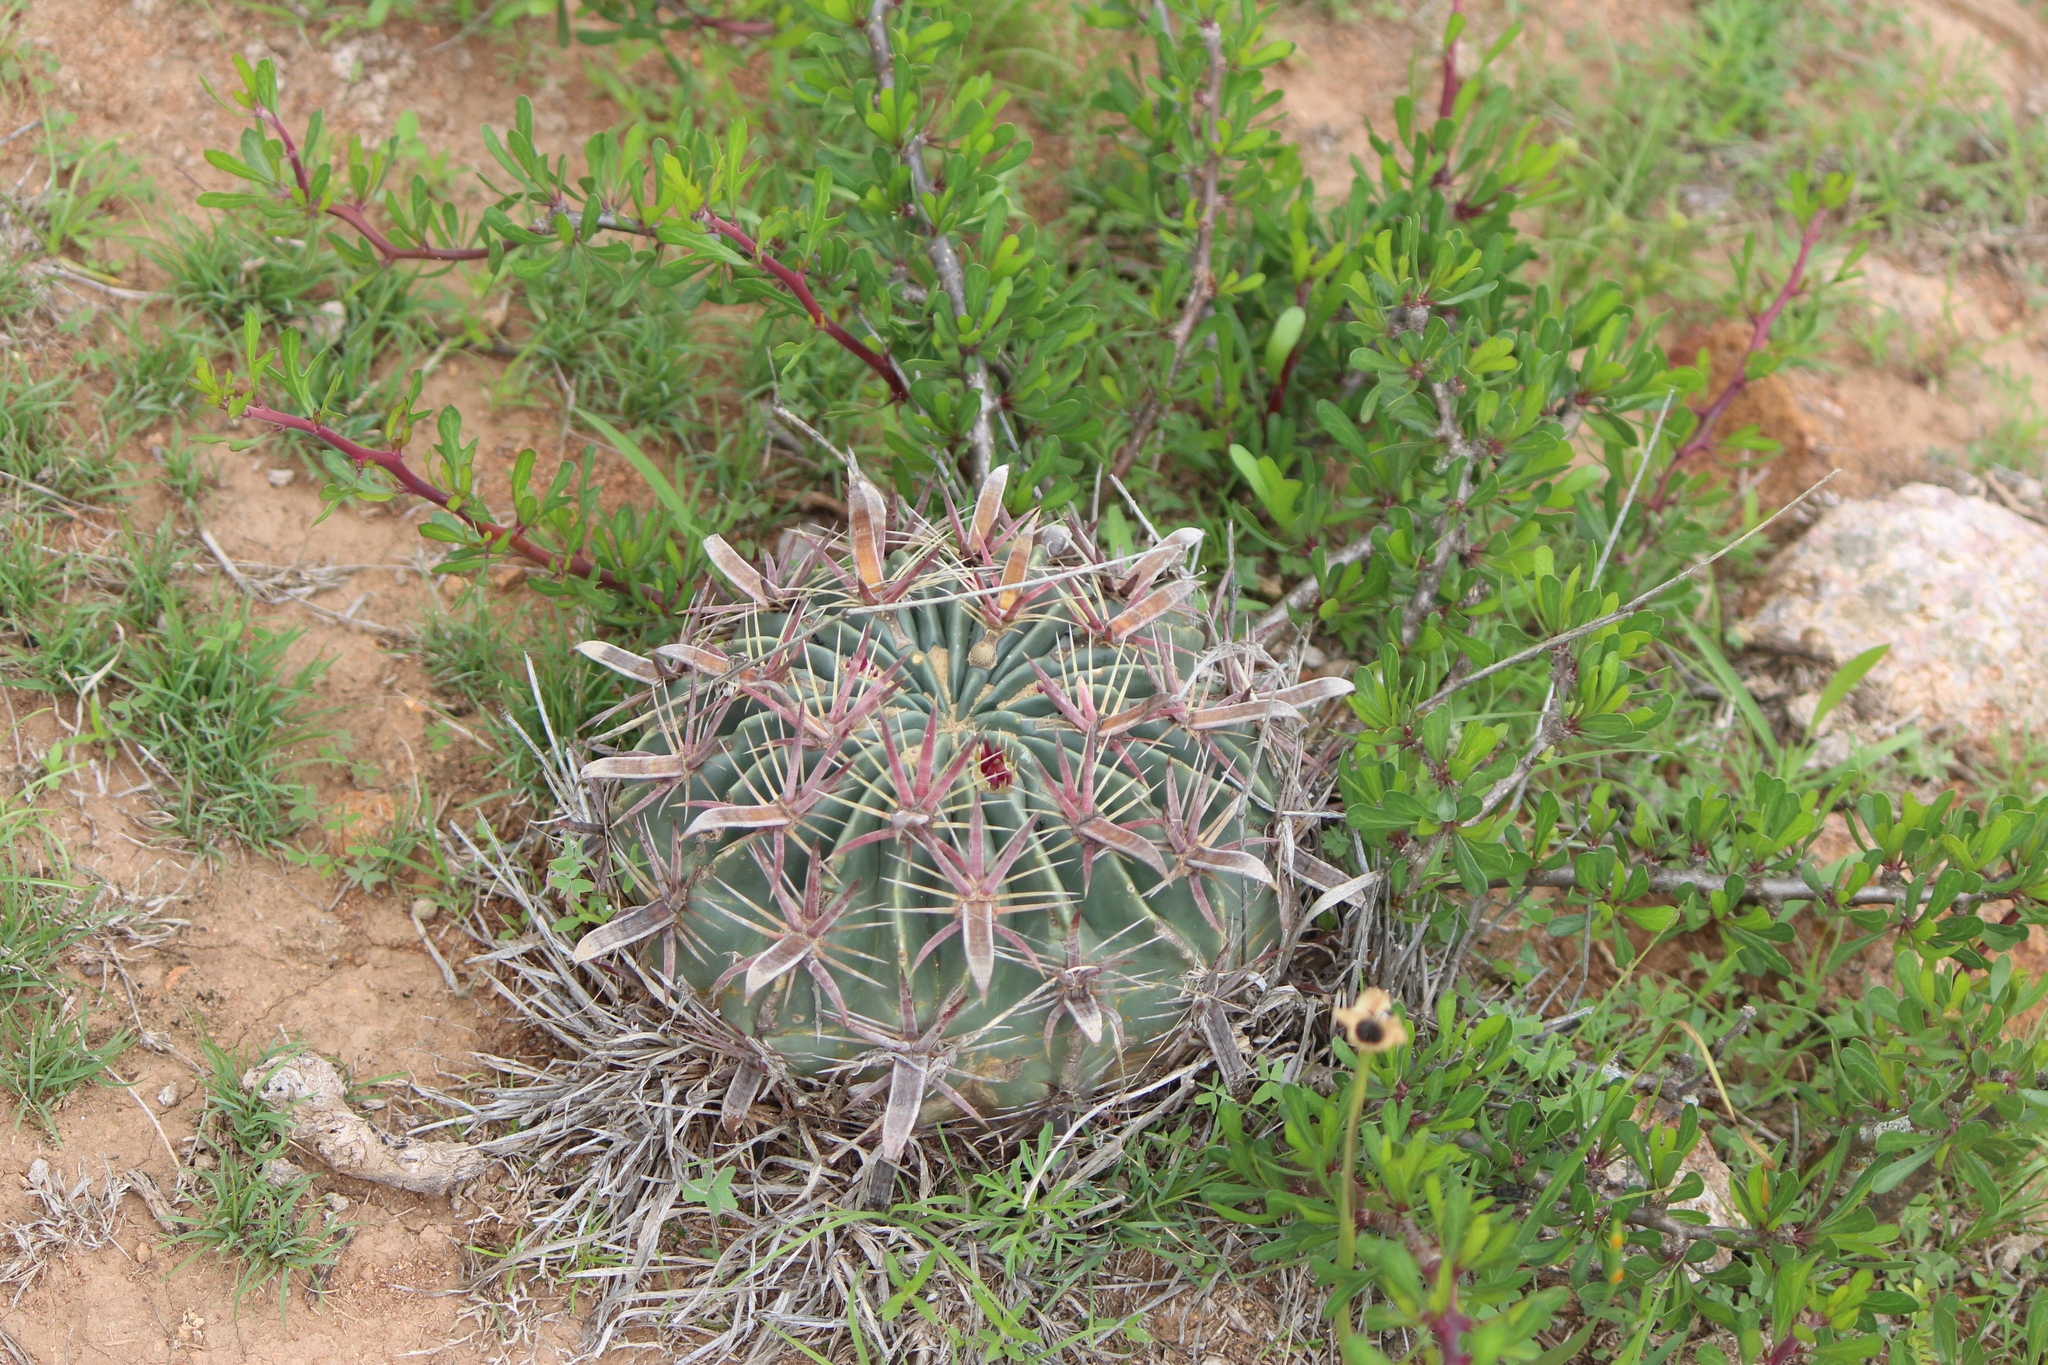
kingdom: Plantae
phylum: Tracheophyta
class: Magnoliopsida
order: Caryophyllales
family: Cactaceae
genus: Ferocactus
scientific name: Ferocactus latispinus
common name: Devil's-tongue cactus
